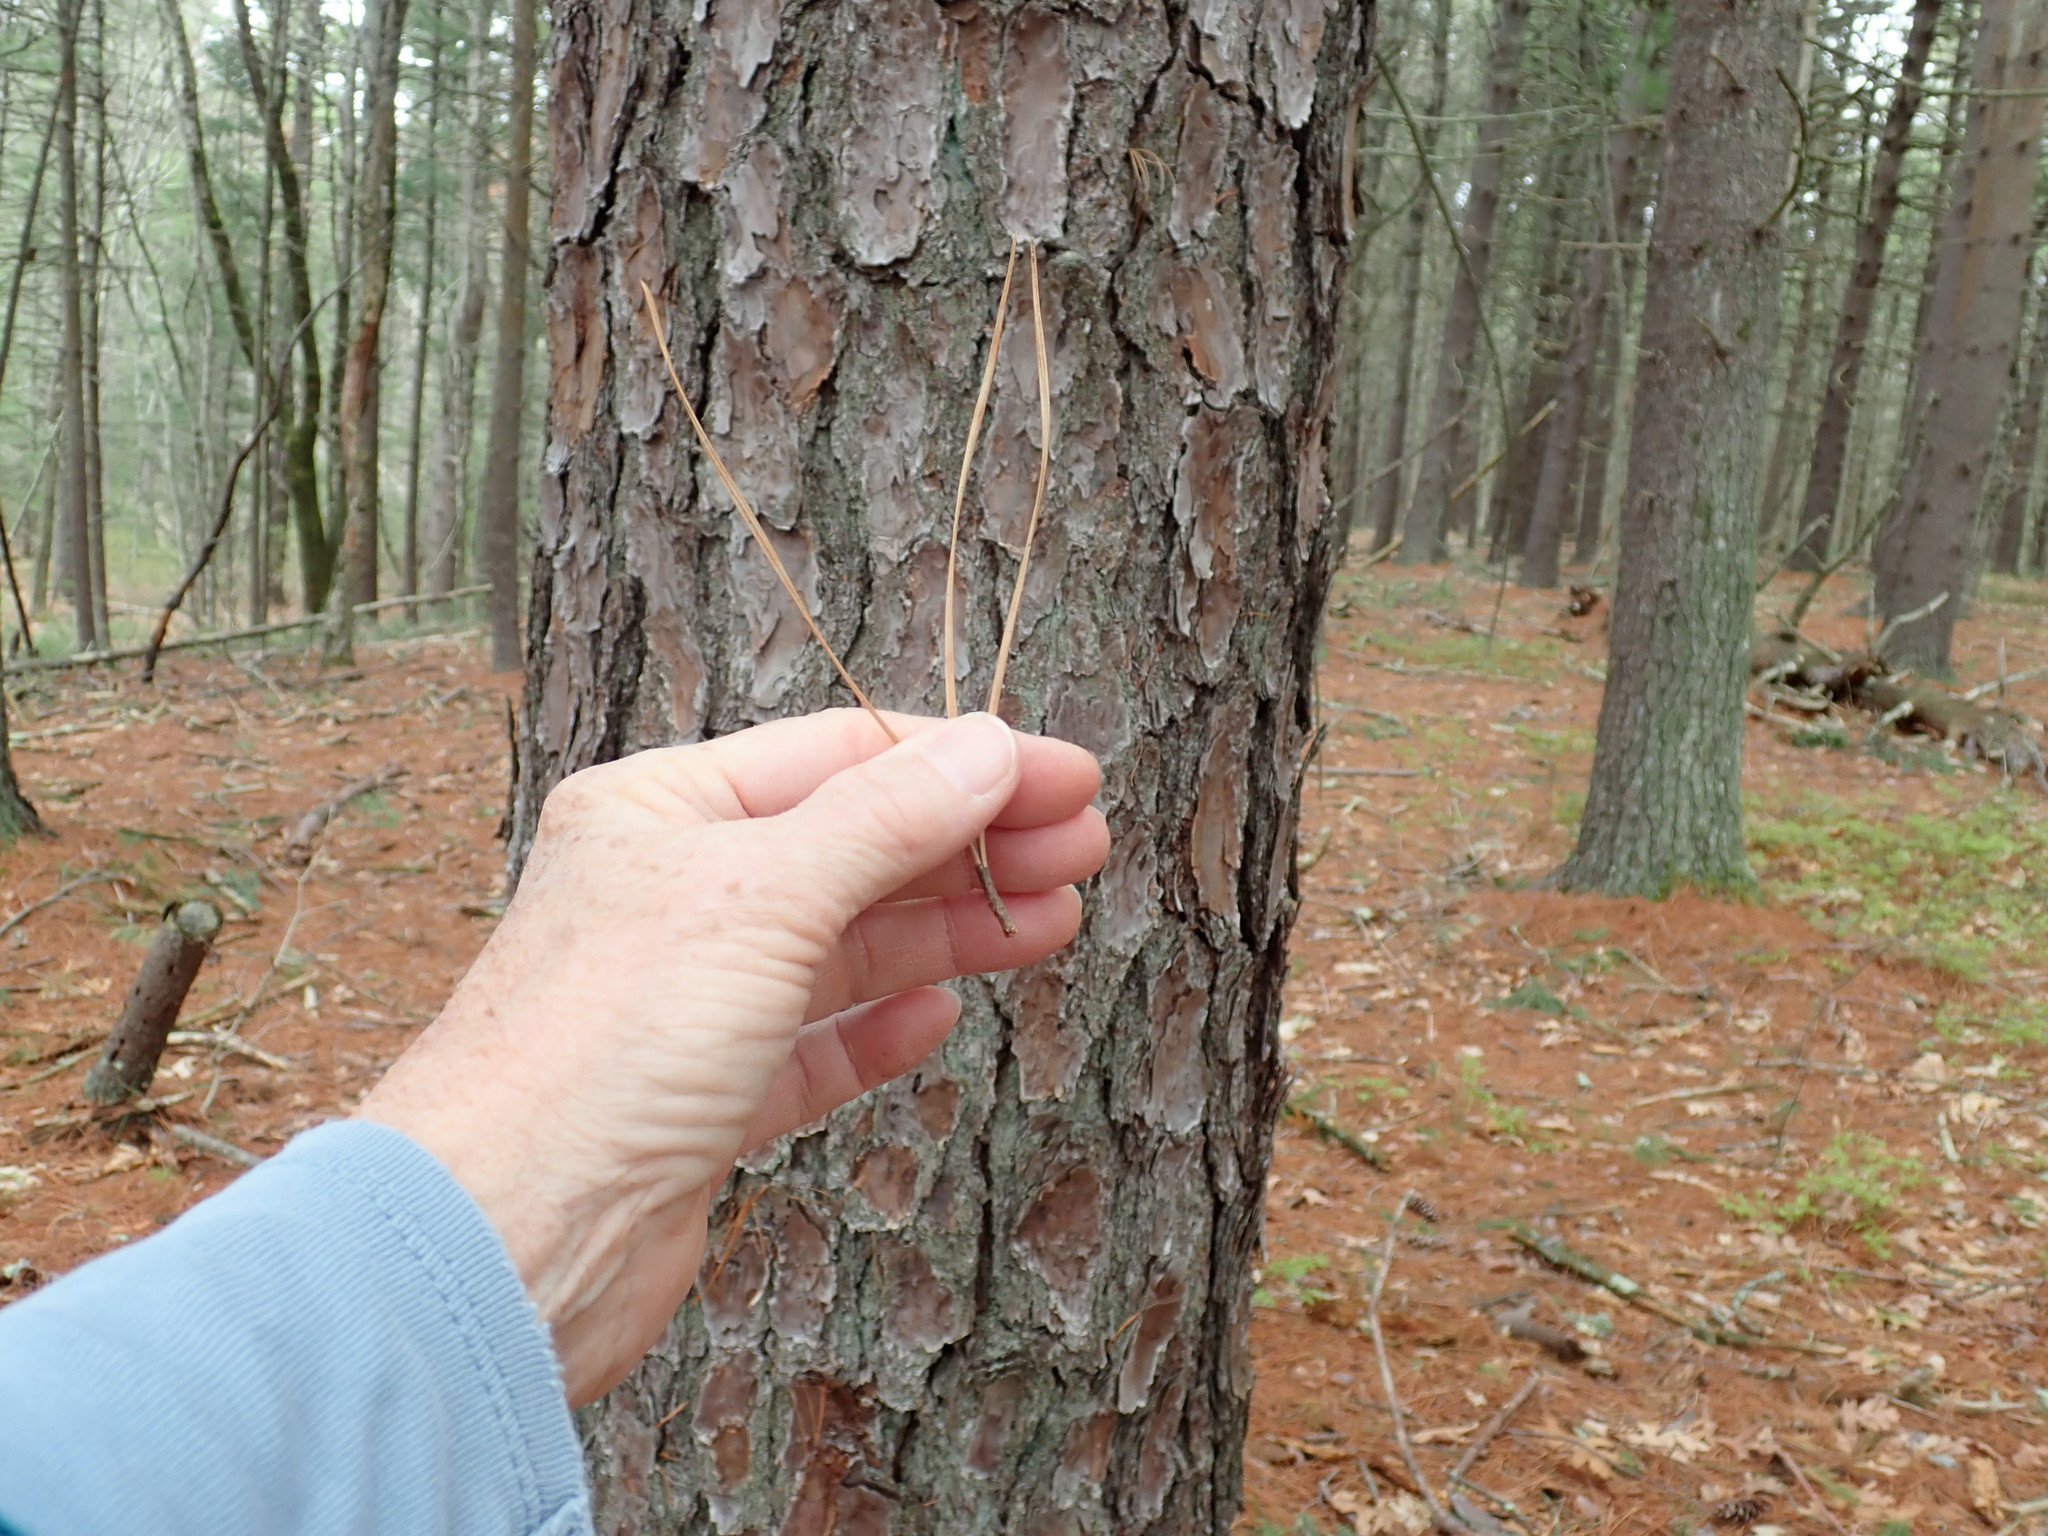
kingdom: Plantae
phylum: Tracheophyta
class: Pinopsida
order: Pinales
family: Pinaceae
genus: Pinus
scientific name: Pinus rigida
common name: Pitch pine
